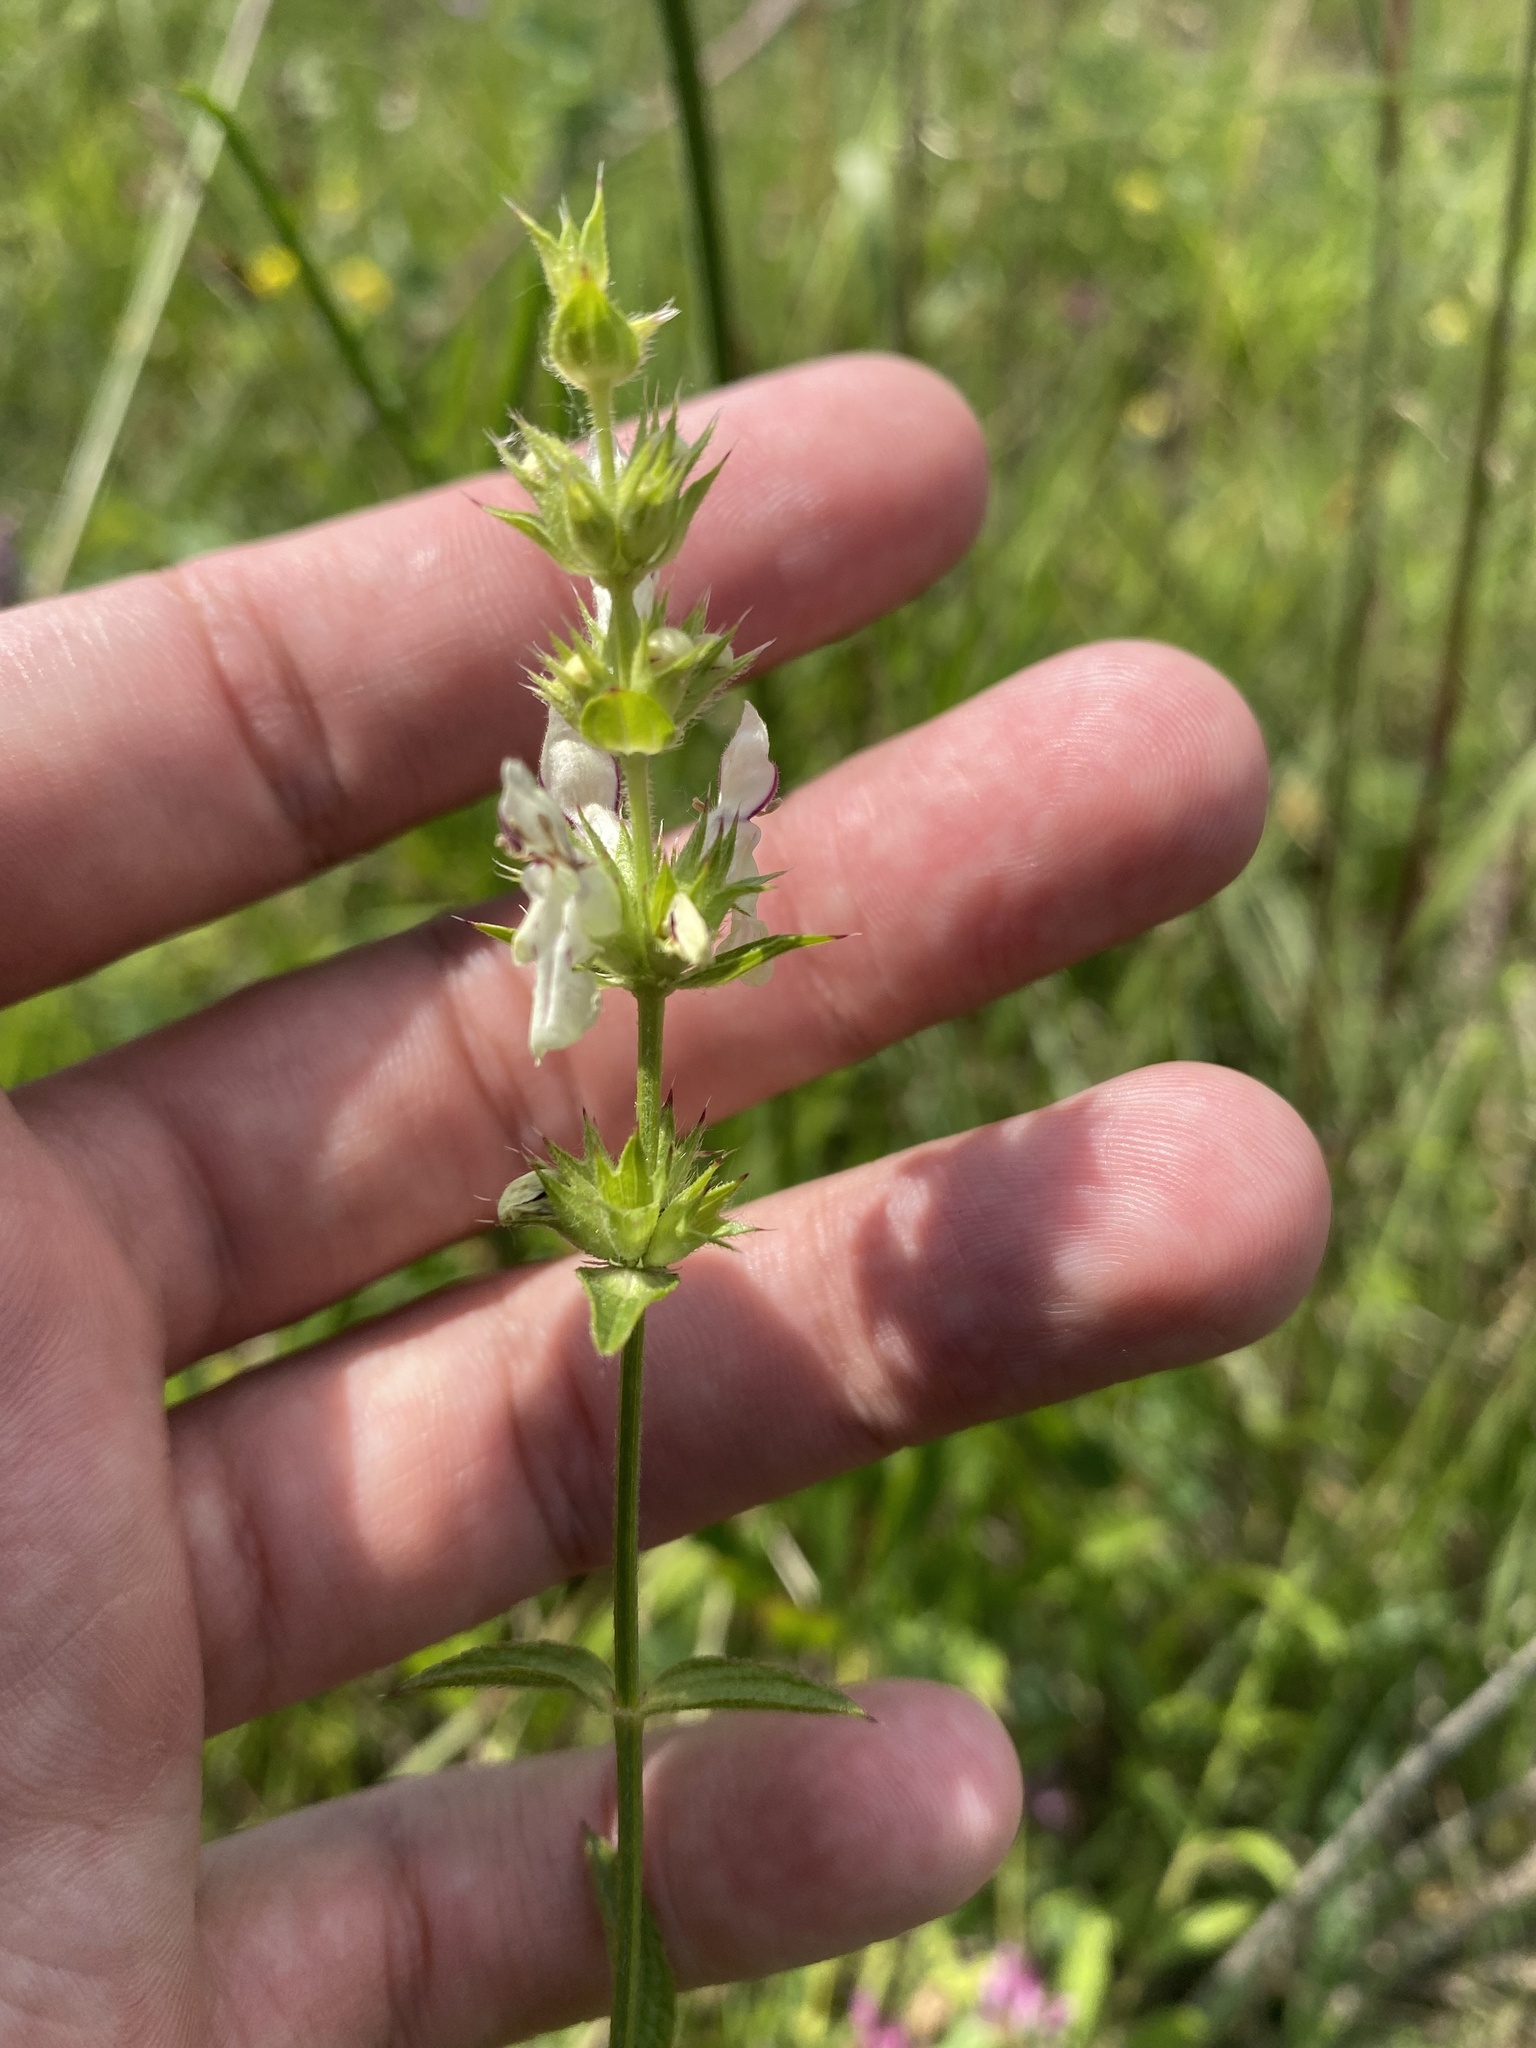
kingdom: Plantae
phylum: Tracheophyta
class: Magnoliopsida
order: Lamiales
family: Lamiaceae
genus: Stachys
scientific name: Stachys atherocalyx
